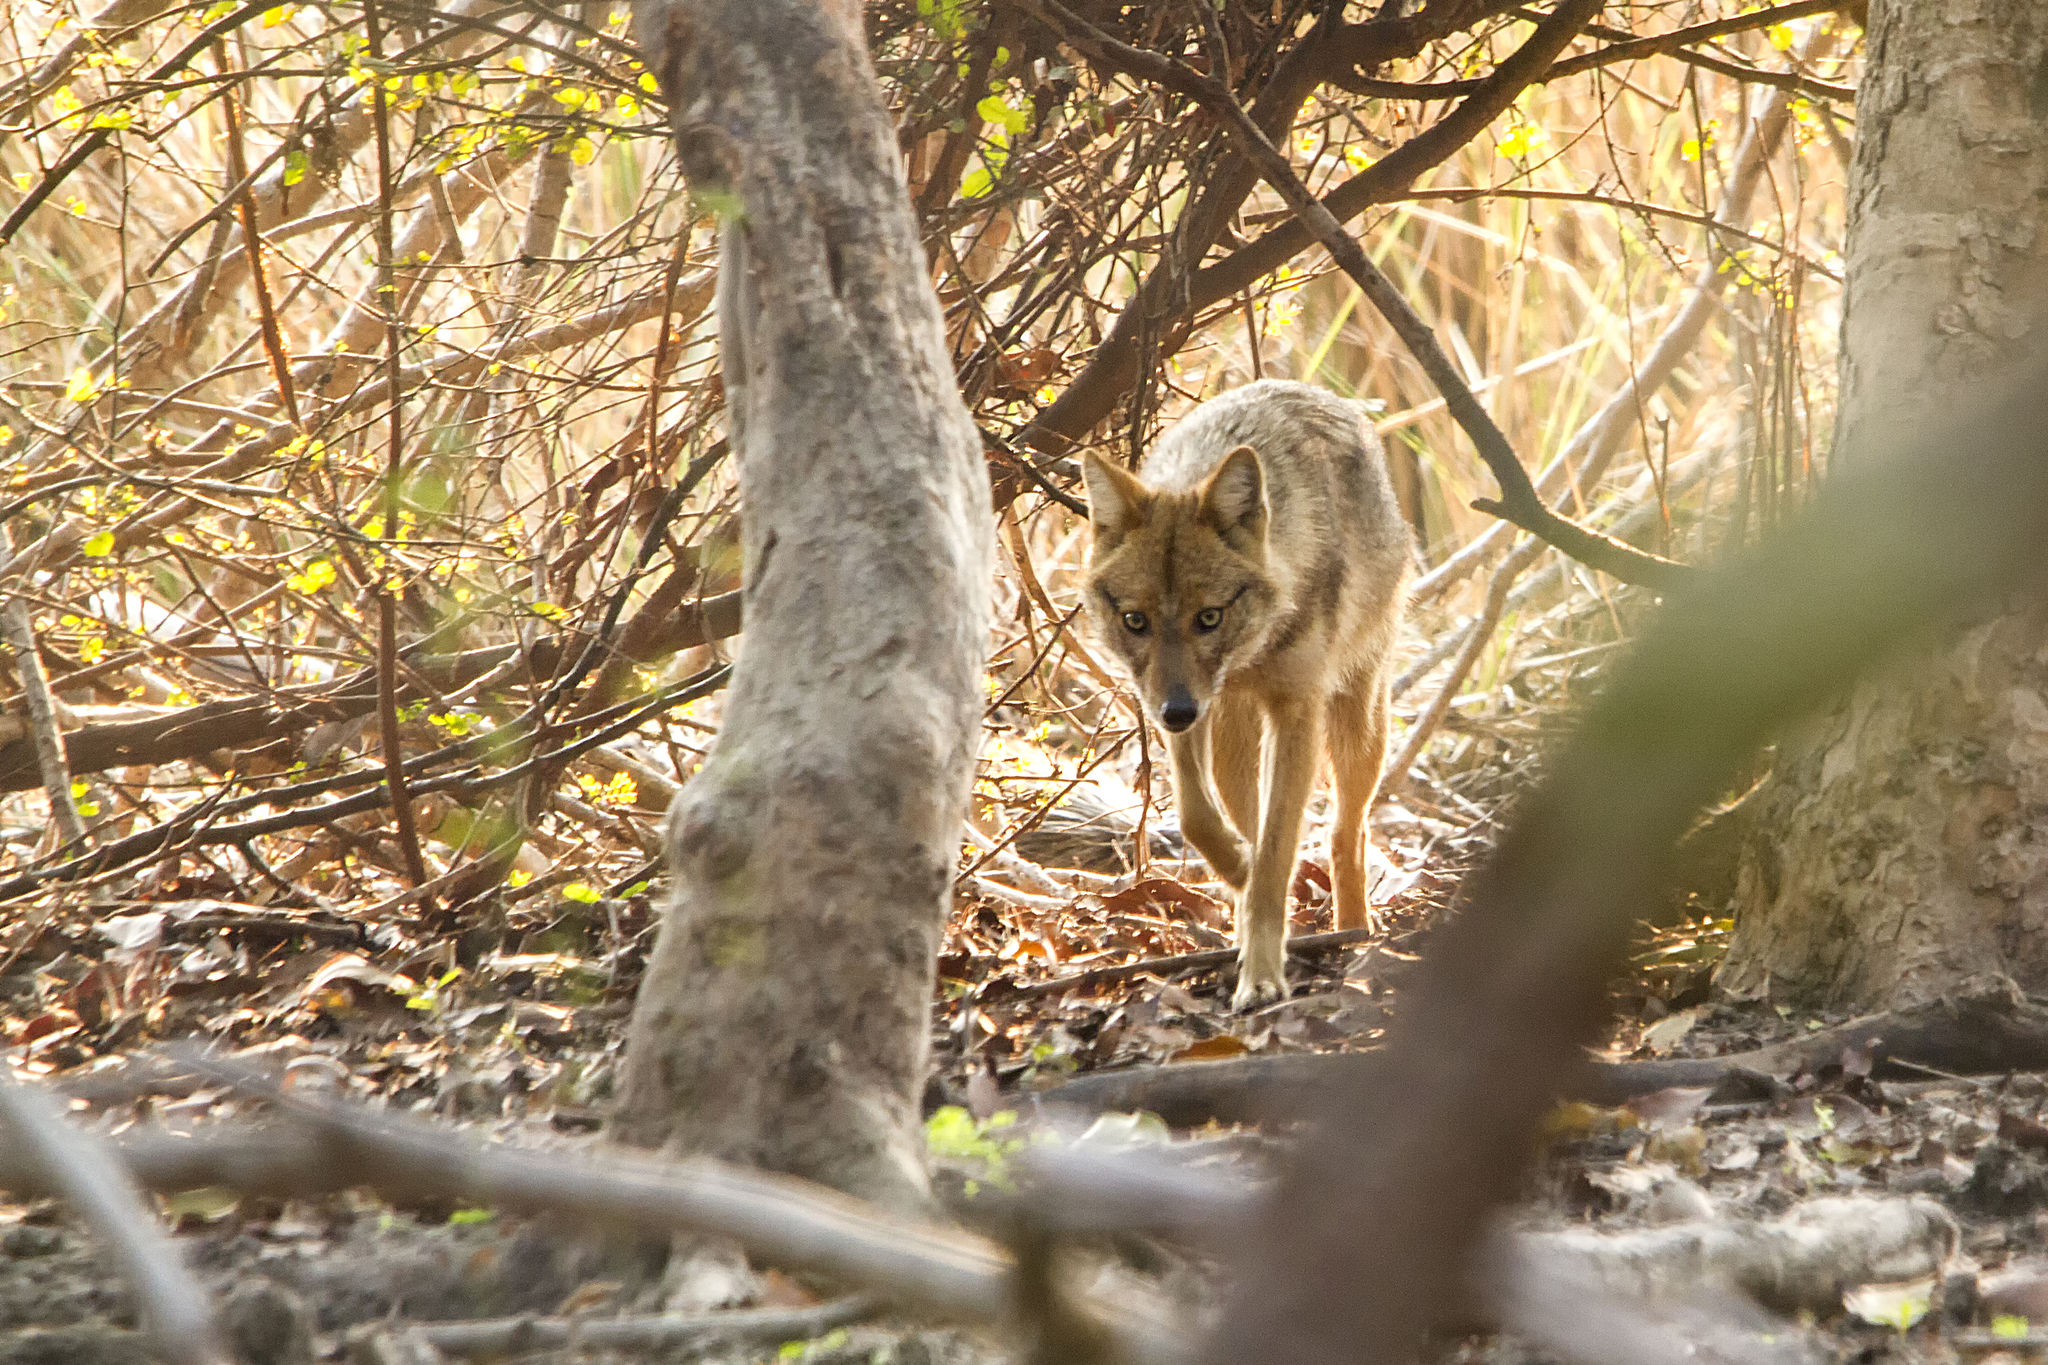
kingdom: Animalia
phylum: Chordata
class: Mammalia
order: Carnivora
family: Canidae
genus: Canis
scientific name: Canis aureus
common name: Golden jackal
